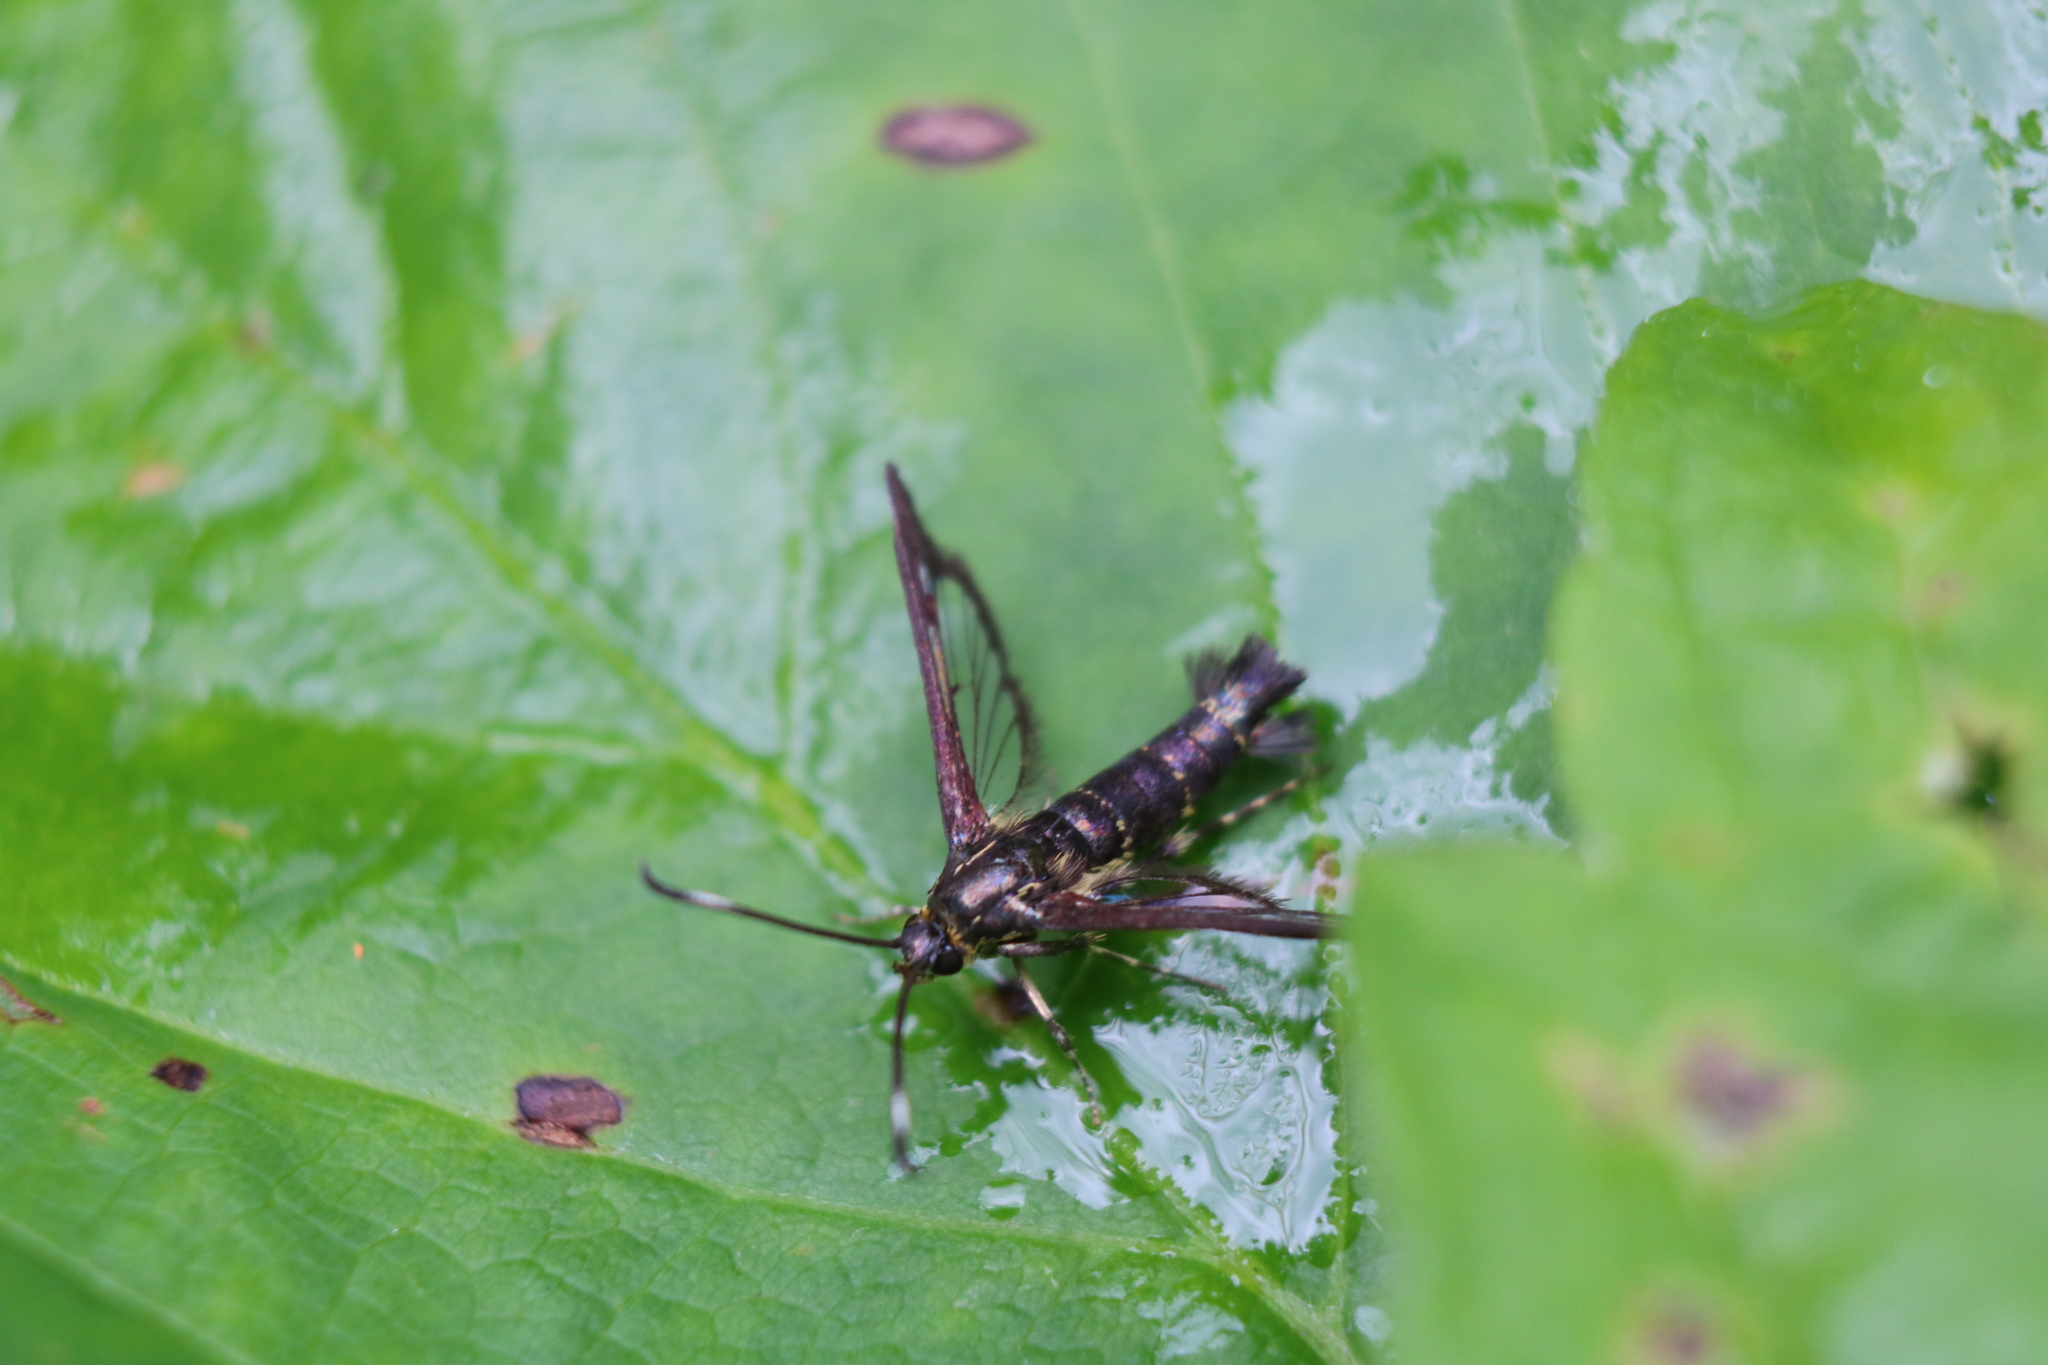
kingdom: Animalia
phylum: Arthropoda
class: Insecta
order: Lepidoptera
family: Sesiidae
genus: Carmenta
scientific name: Carmenta ithacae
